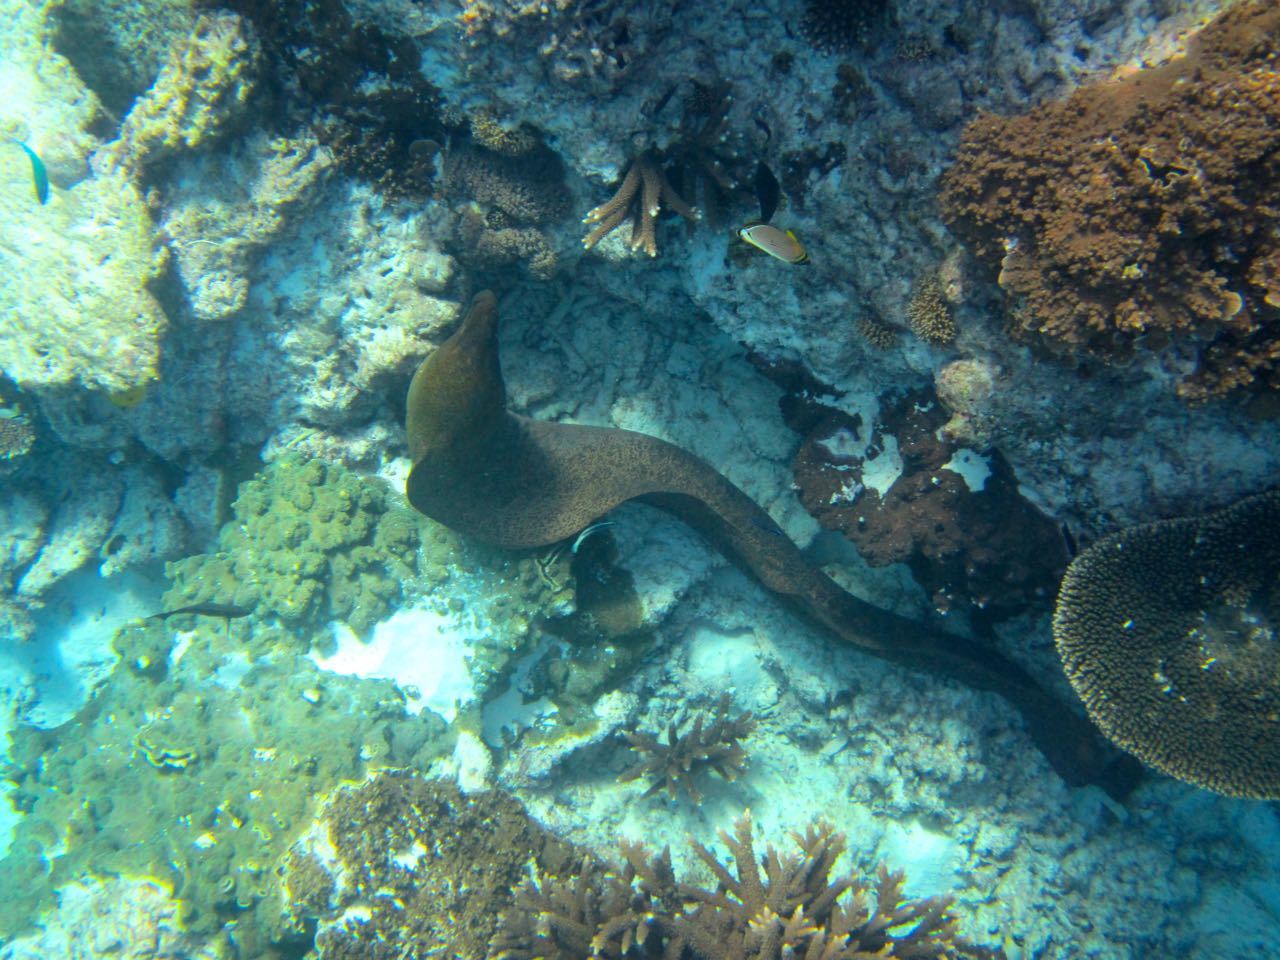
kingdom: Animalia
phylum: Chordata
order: Anguilliformes
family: Muraenidae
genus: Gymnothorax
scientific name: Gymnothorax javanicus
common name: Giant moray
